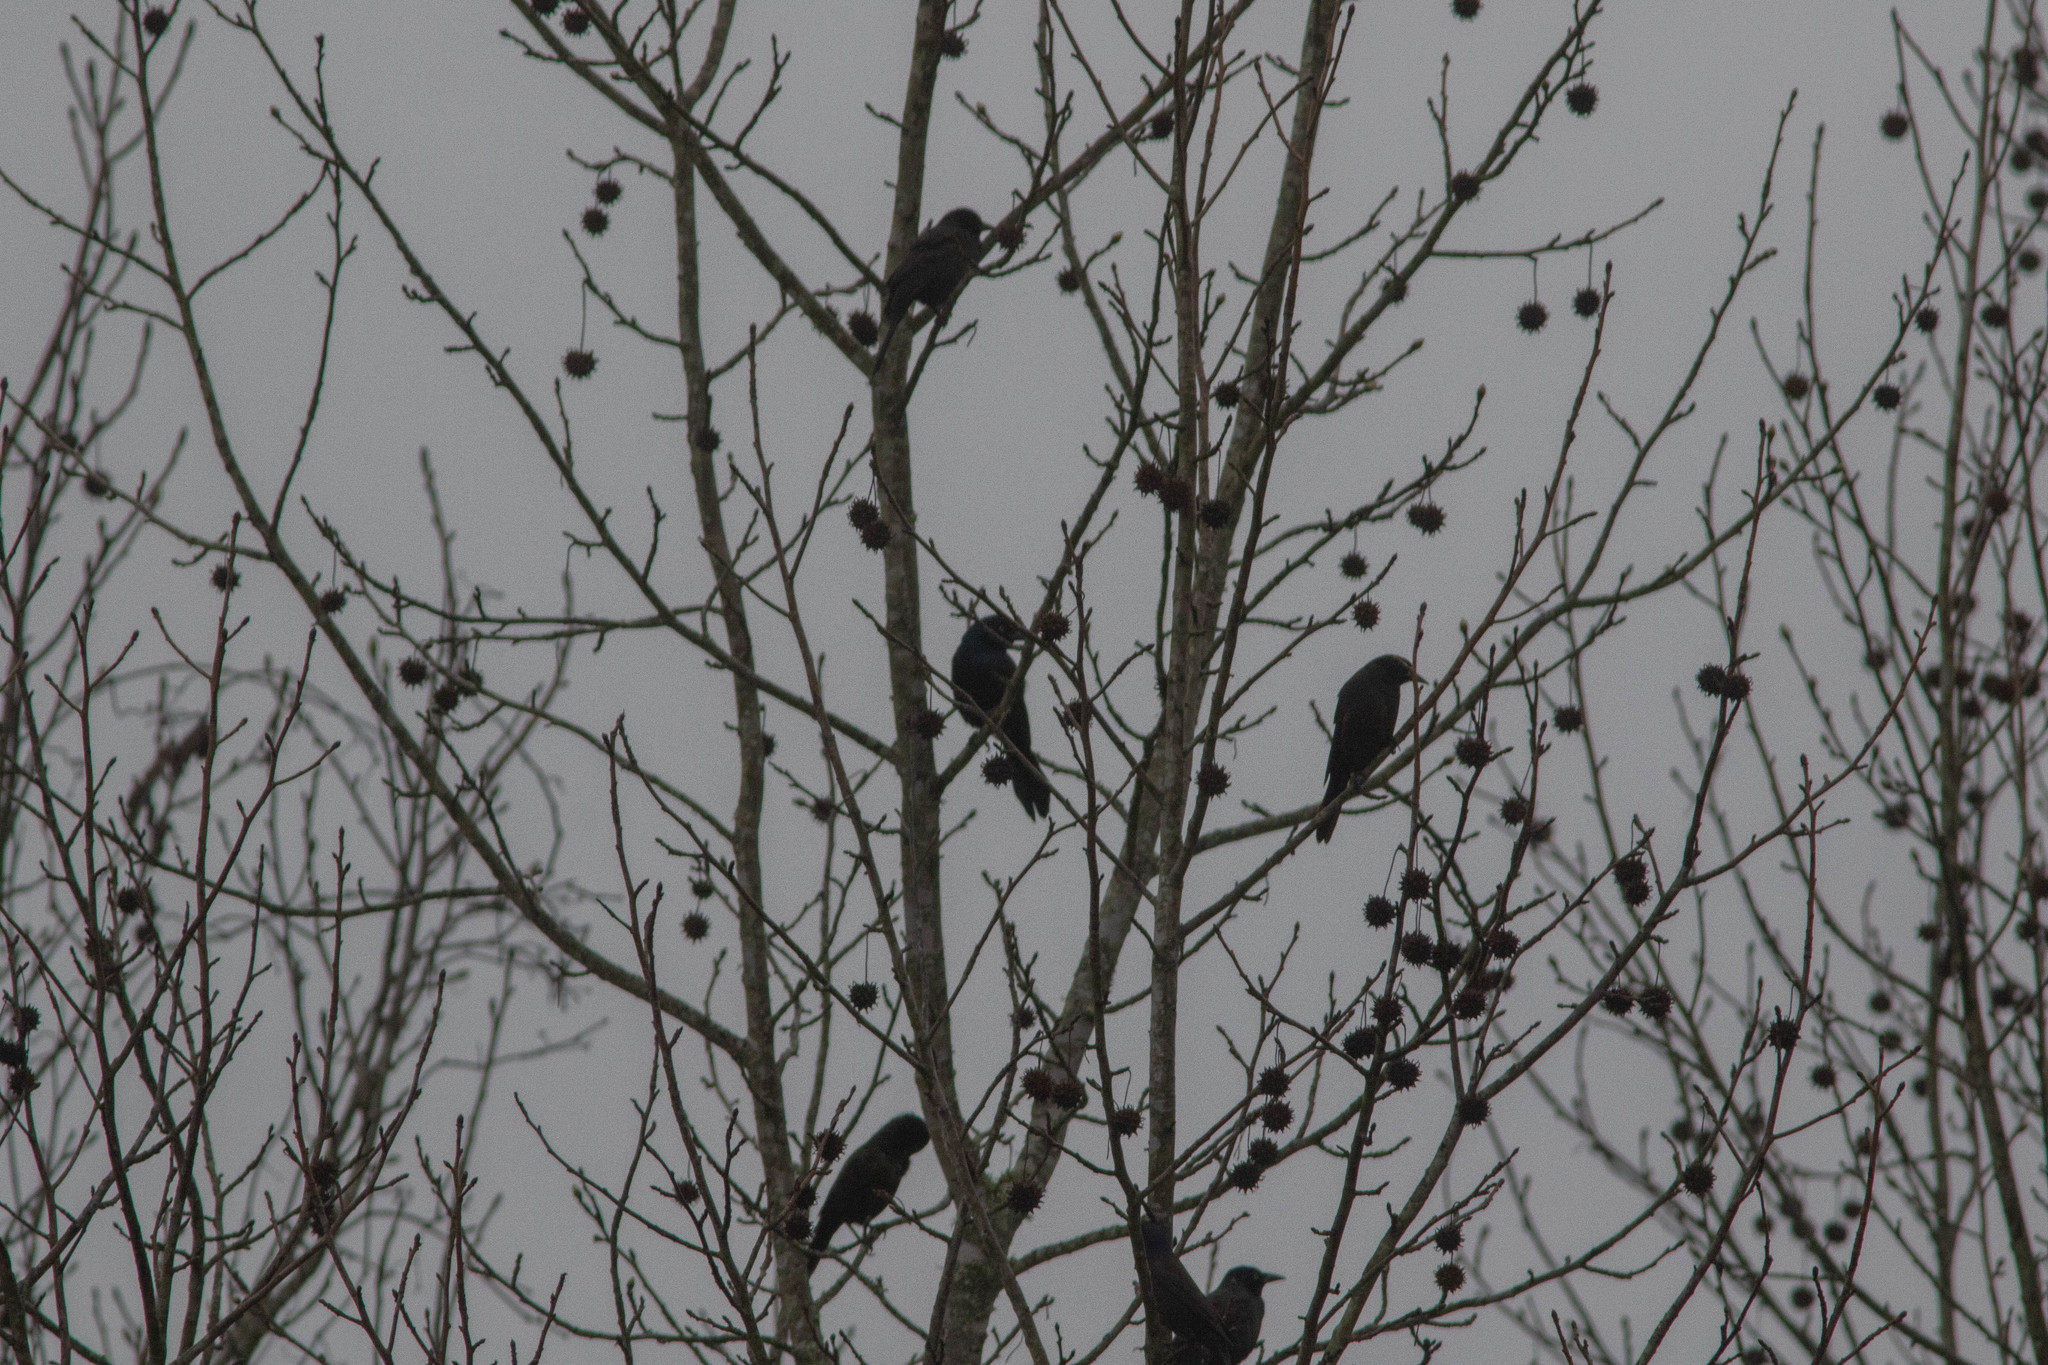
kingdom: Animalia
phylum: Chordata
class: Aves
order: Passeriformes
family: Icteridae
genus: Quiscalus
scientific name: Quiscalus quiscula
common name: Common grackle
